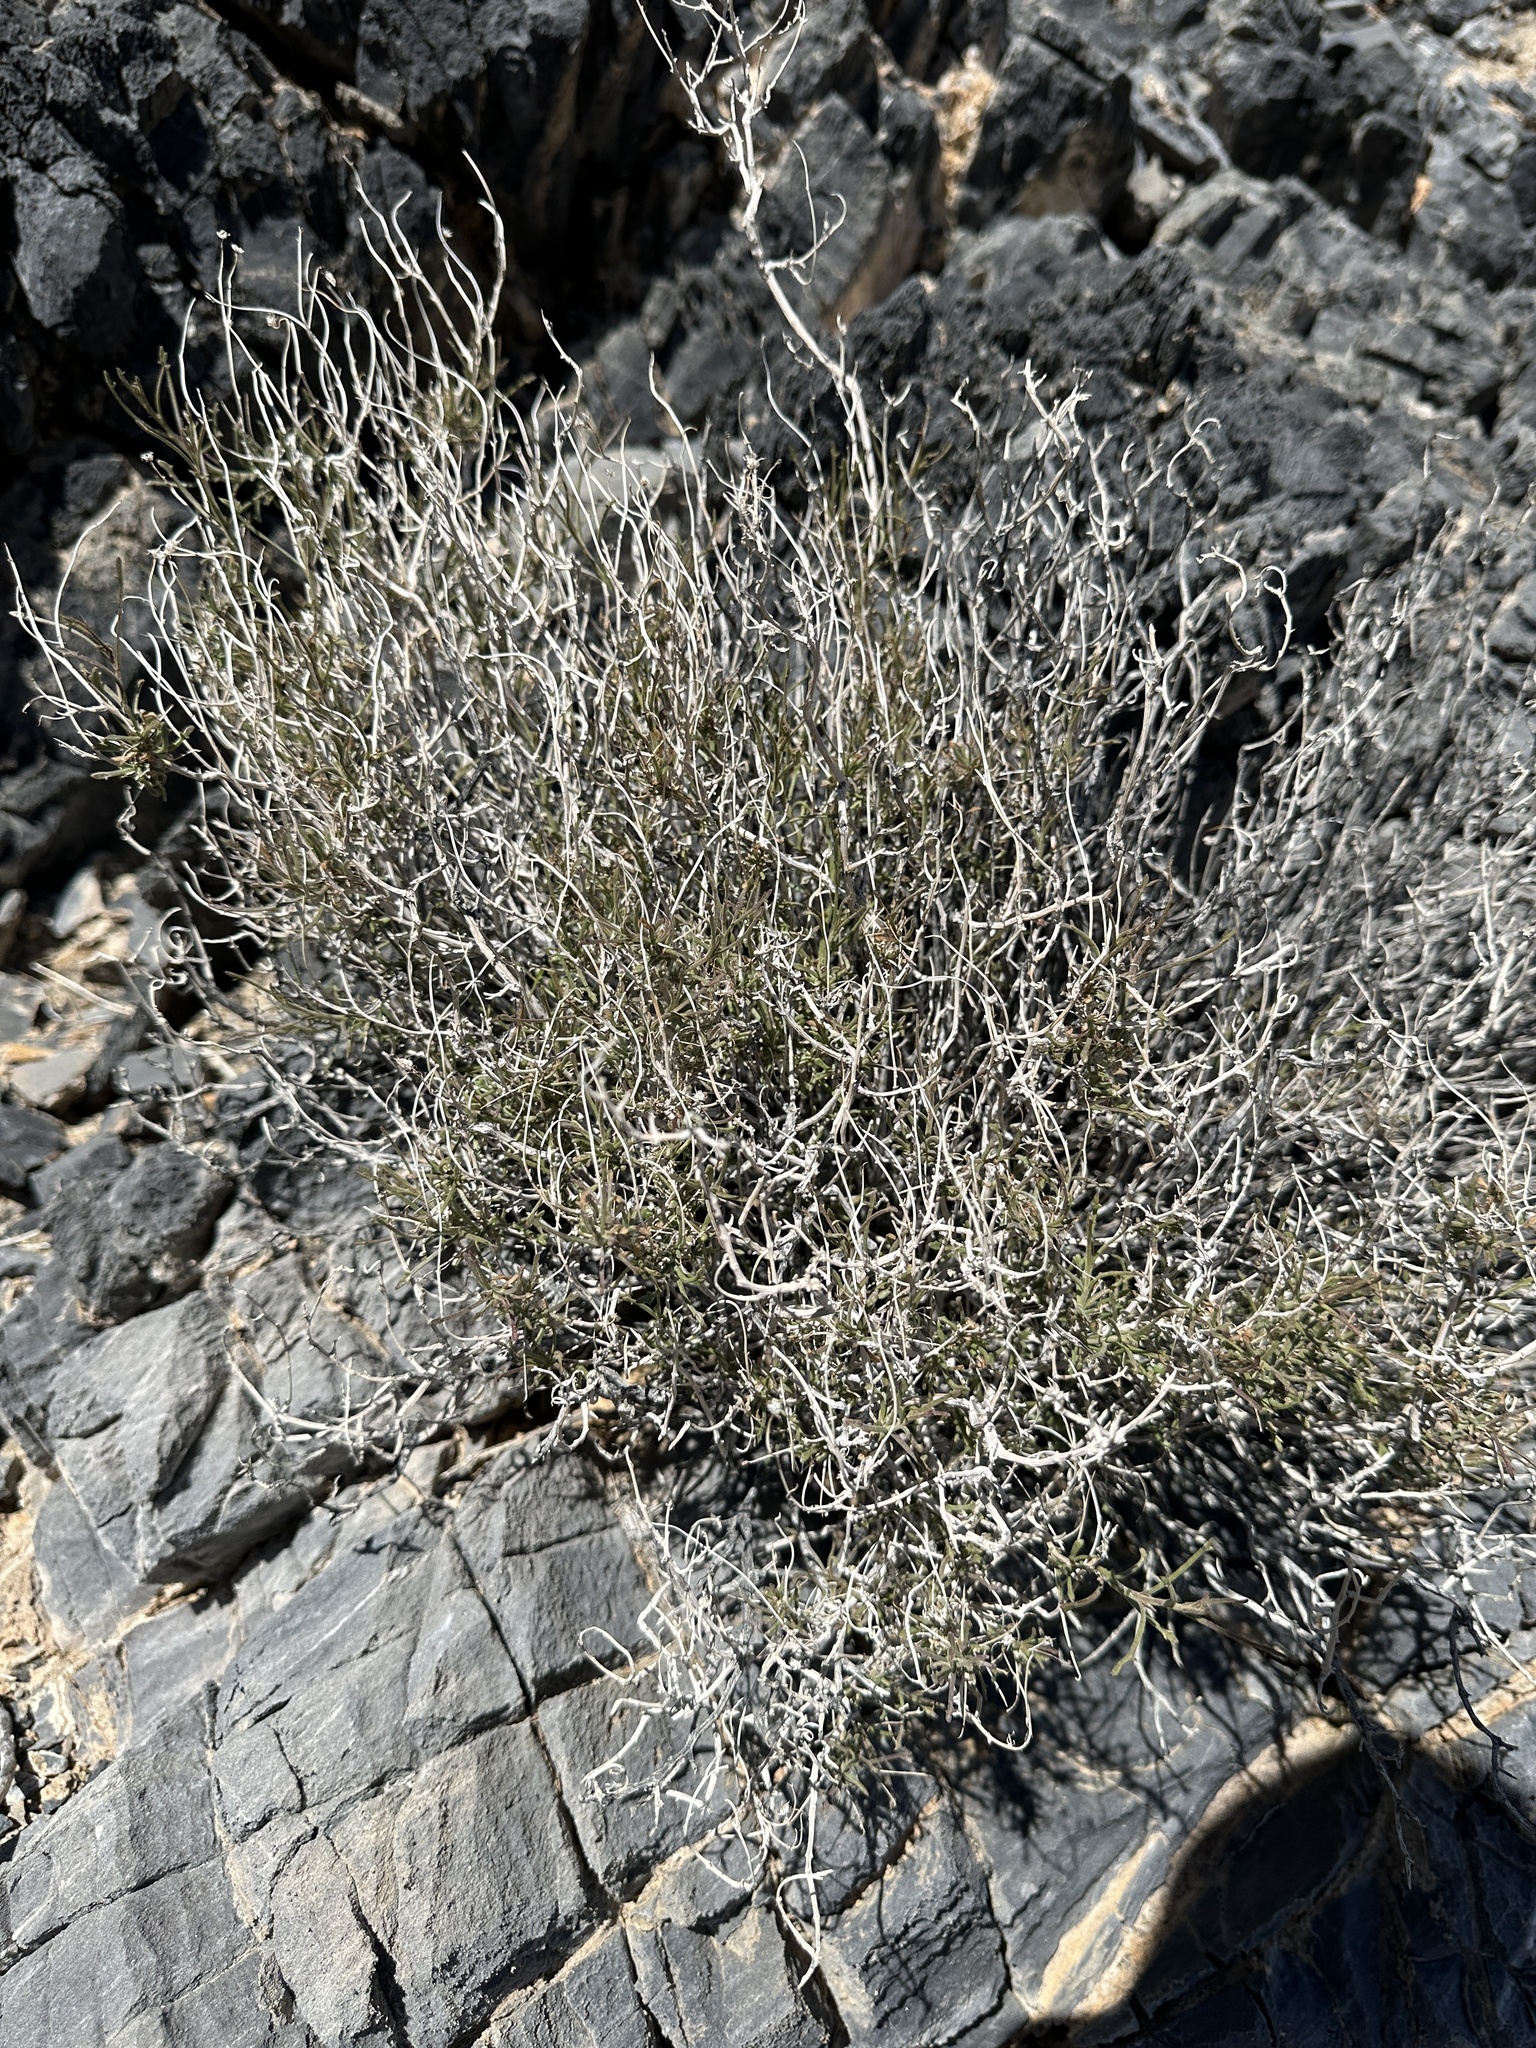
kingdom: Plantae
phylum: Tracheophyta
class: Magnoliopsida
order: Asterales
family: Asteraceae
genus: Pleurocoronis
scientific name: Pleurocoronis pluriseta
